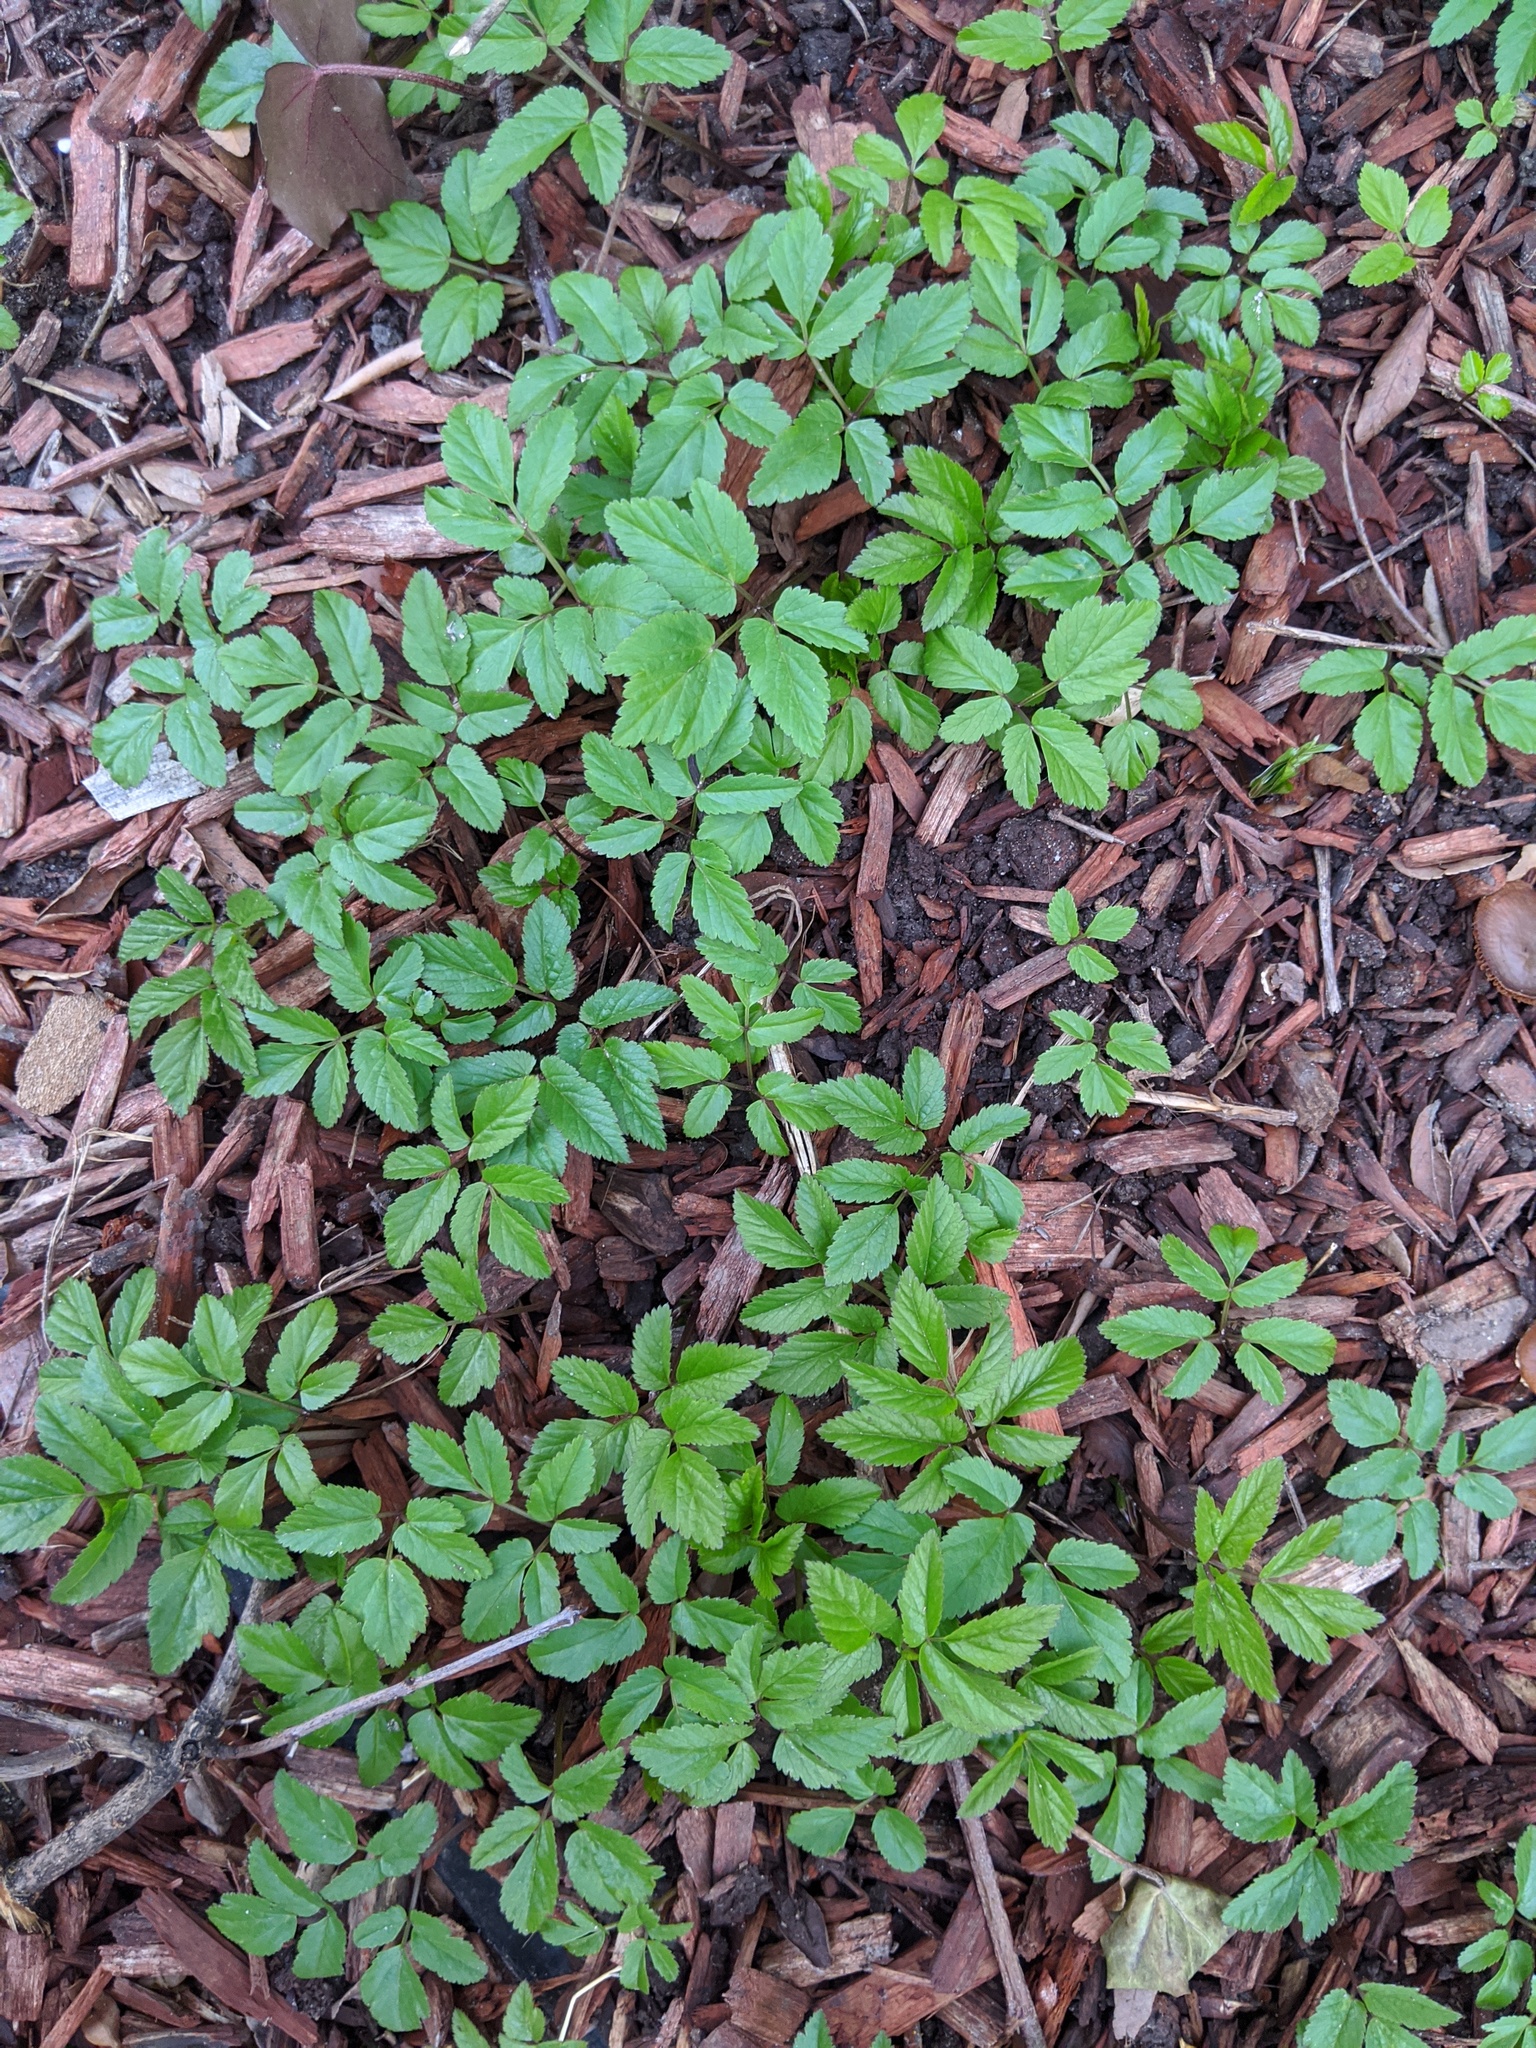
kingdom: Plantae
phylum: Tracheophyta
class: Magnoliopsida
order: Apiales
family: Apiaceae
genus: Aegopodium
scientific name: Aegopodium podagraria
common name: Ground-elder
